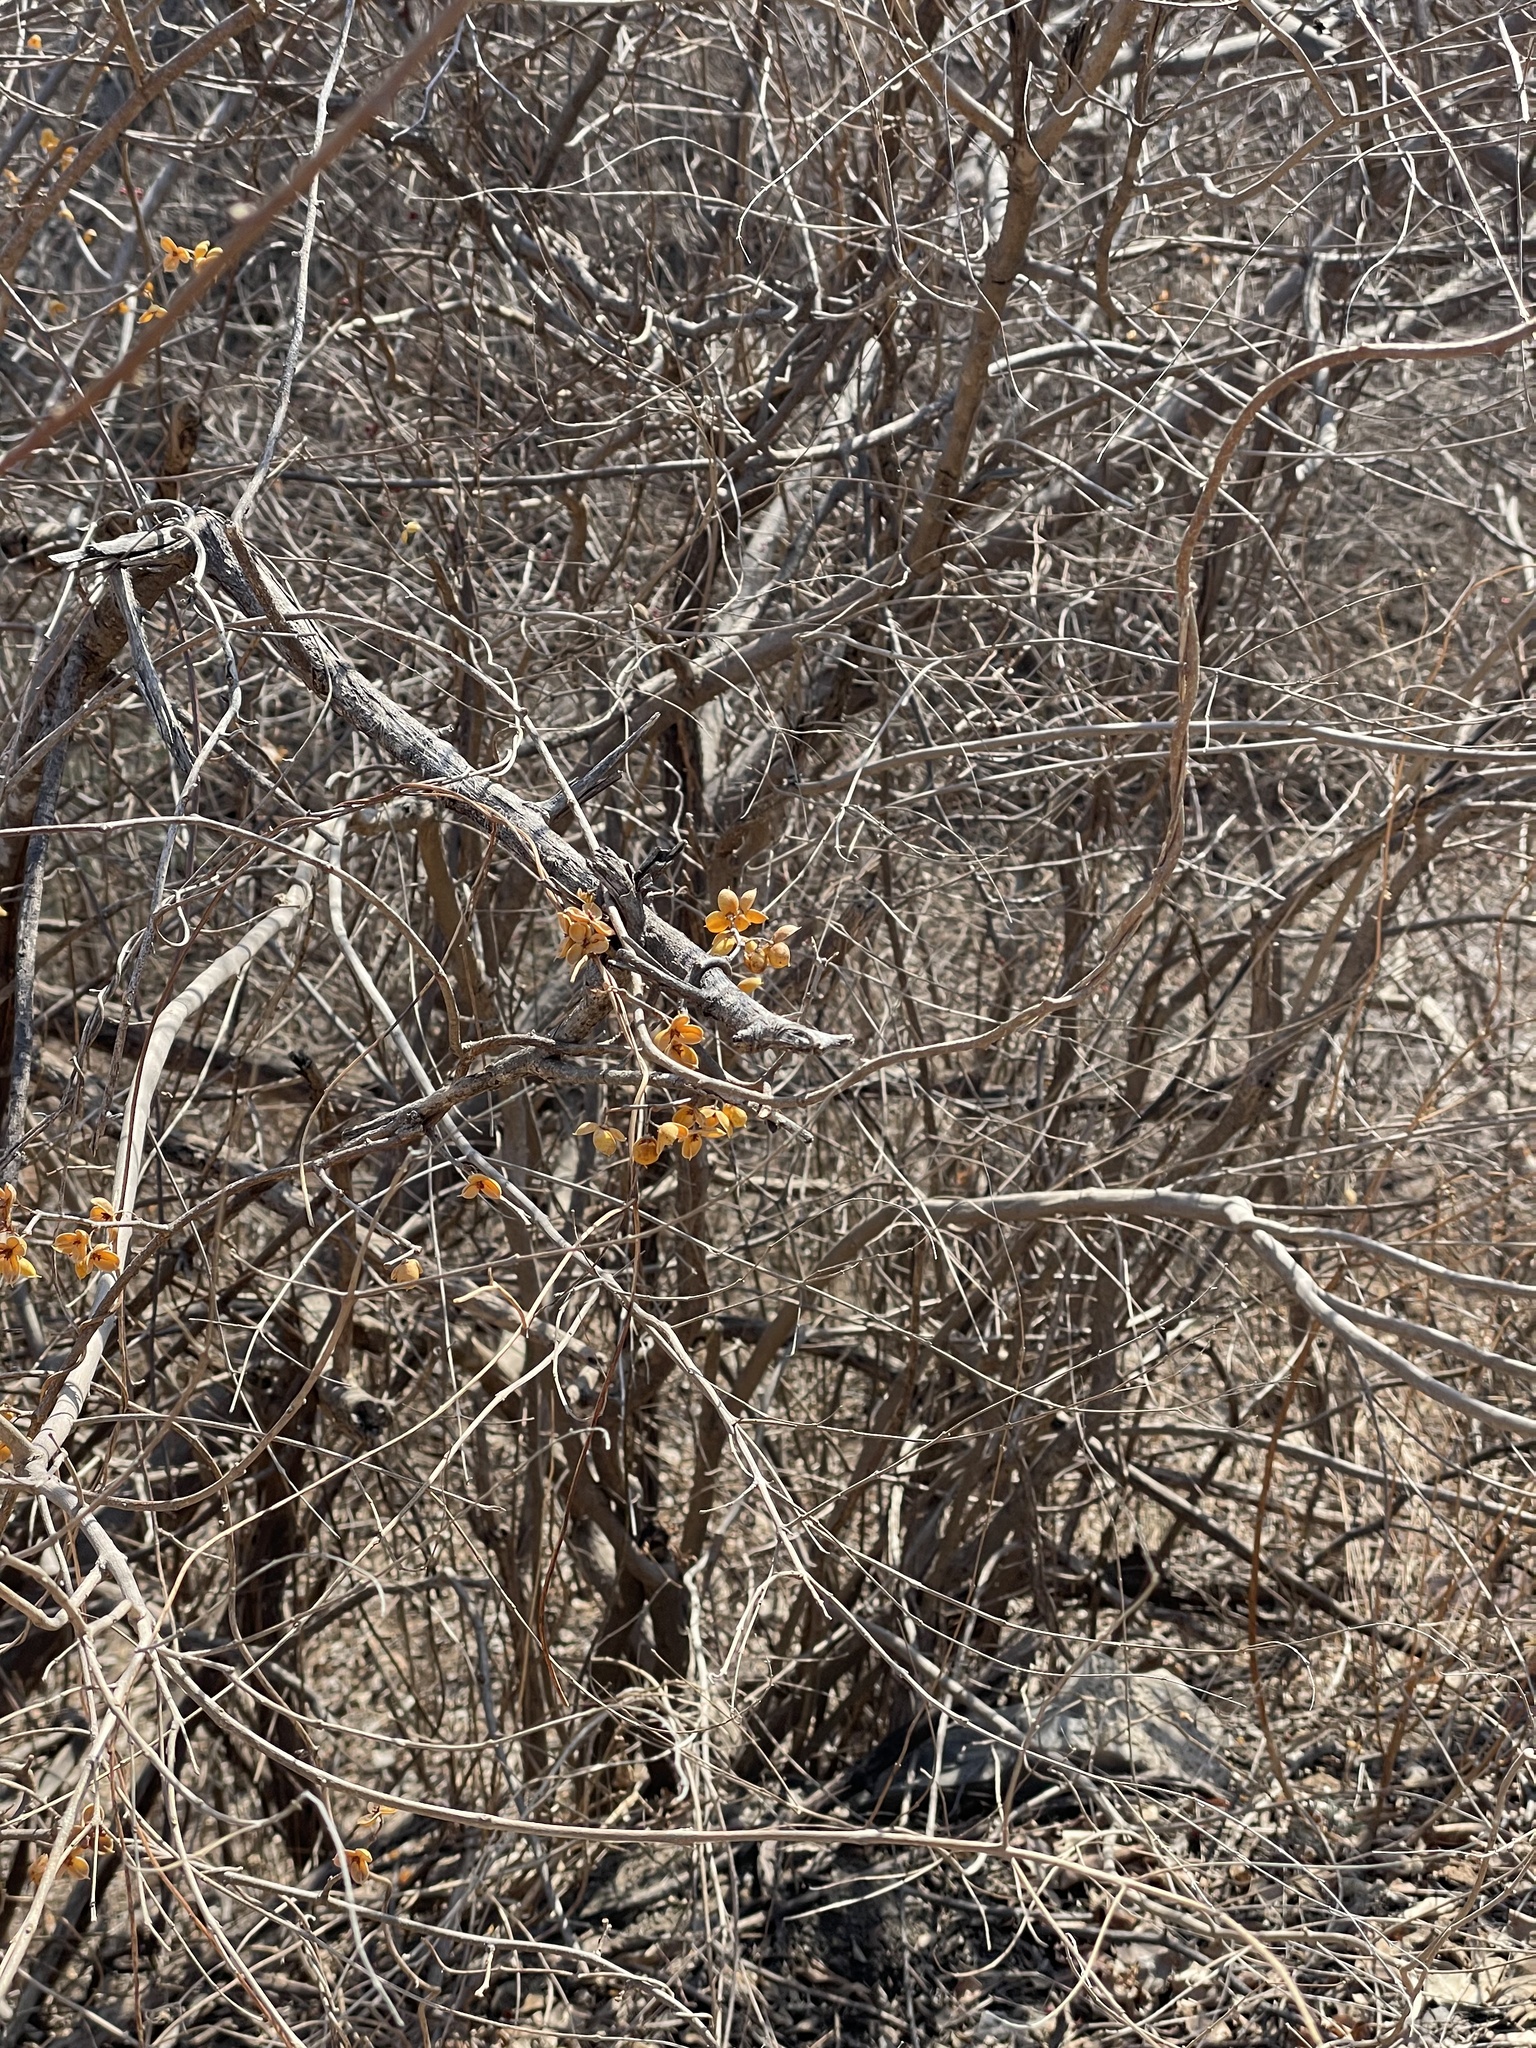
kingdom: Plantae
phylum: Tracheophyta
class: Magnoliopsida
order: Celastrales
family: Celastraceae
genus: Celastrus
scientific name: Celastrus orbiculatus
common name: Oriental bittersweet
